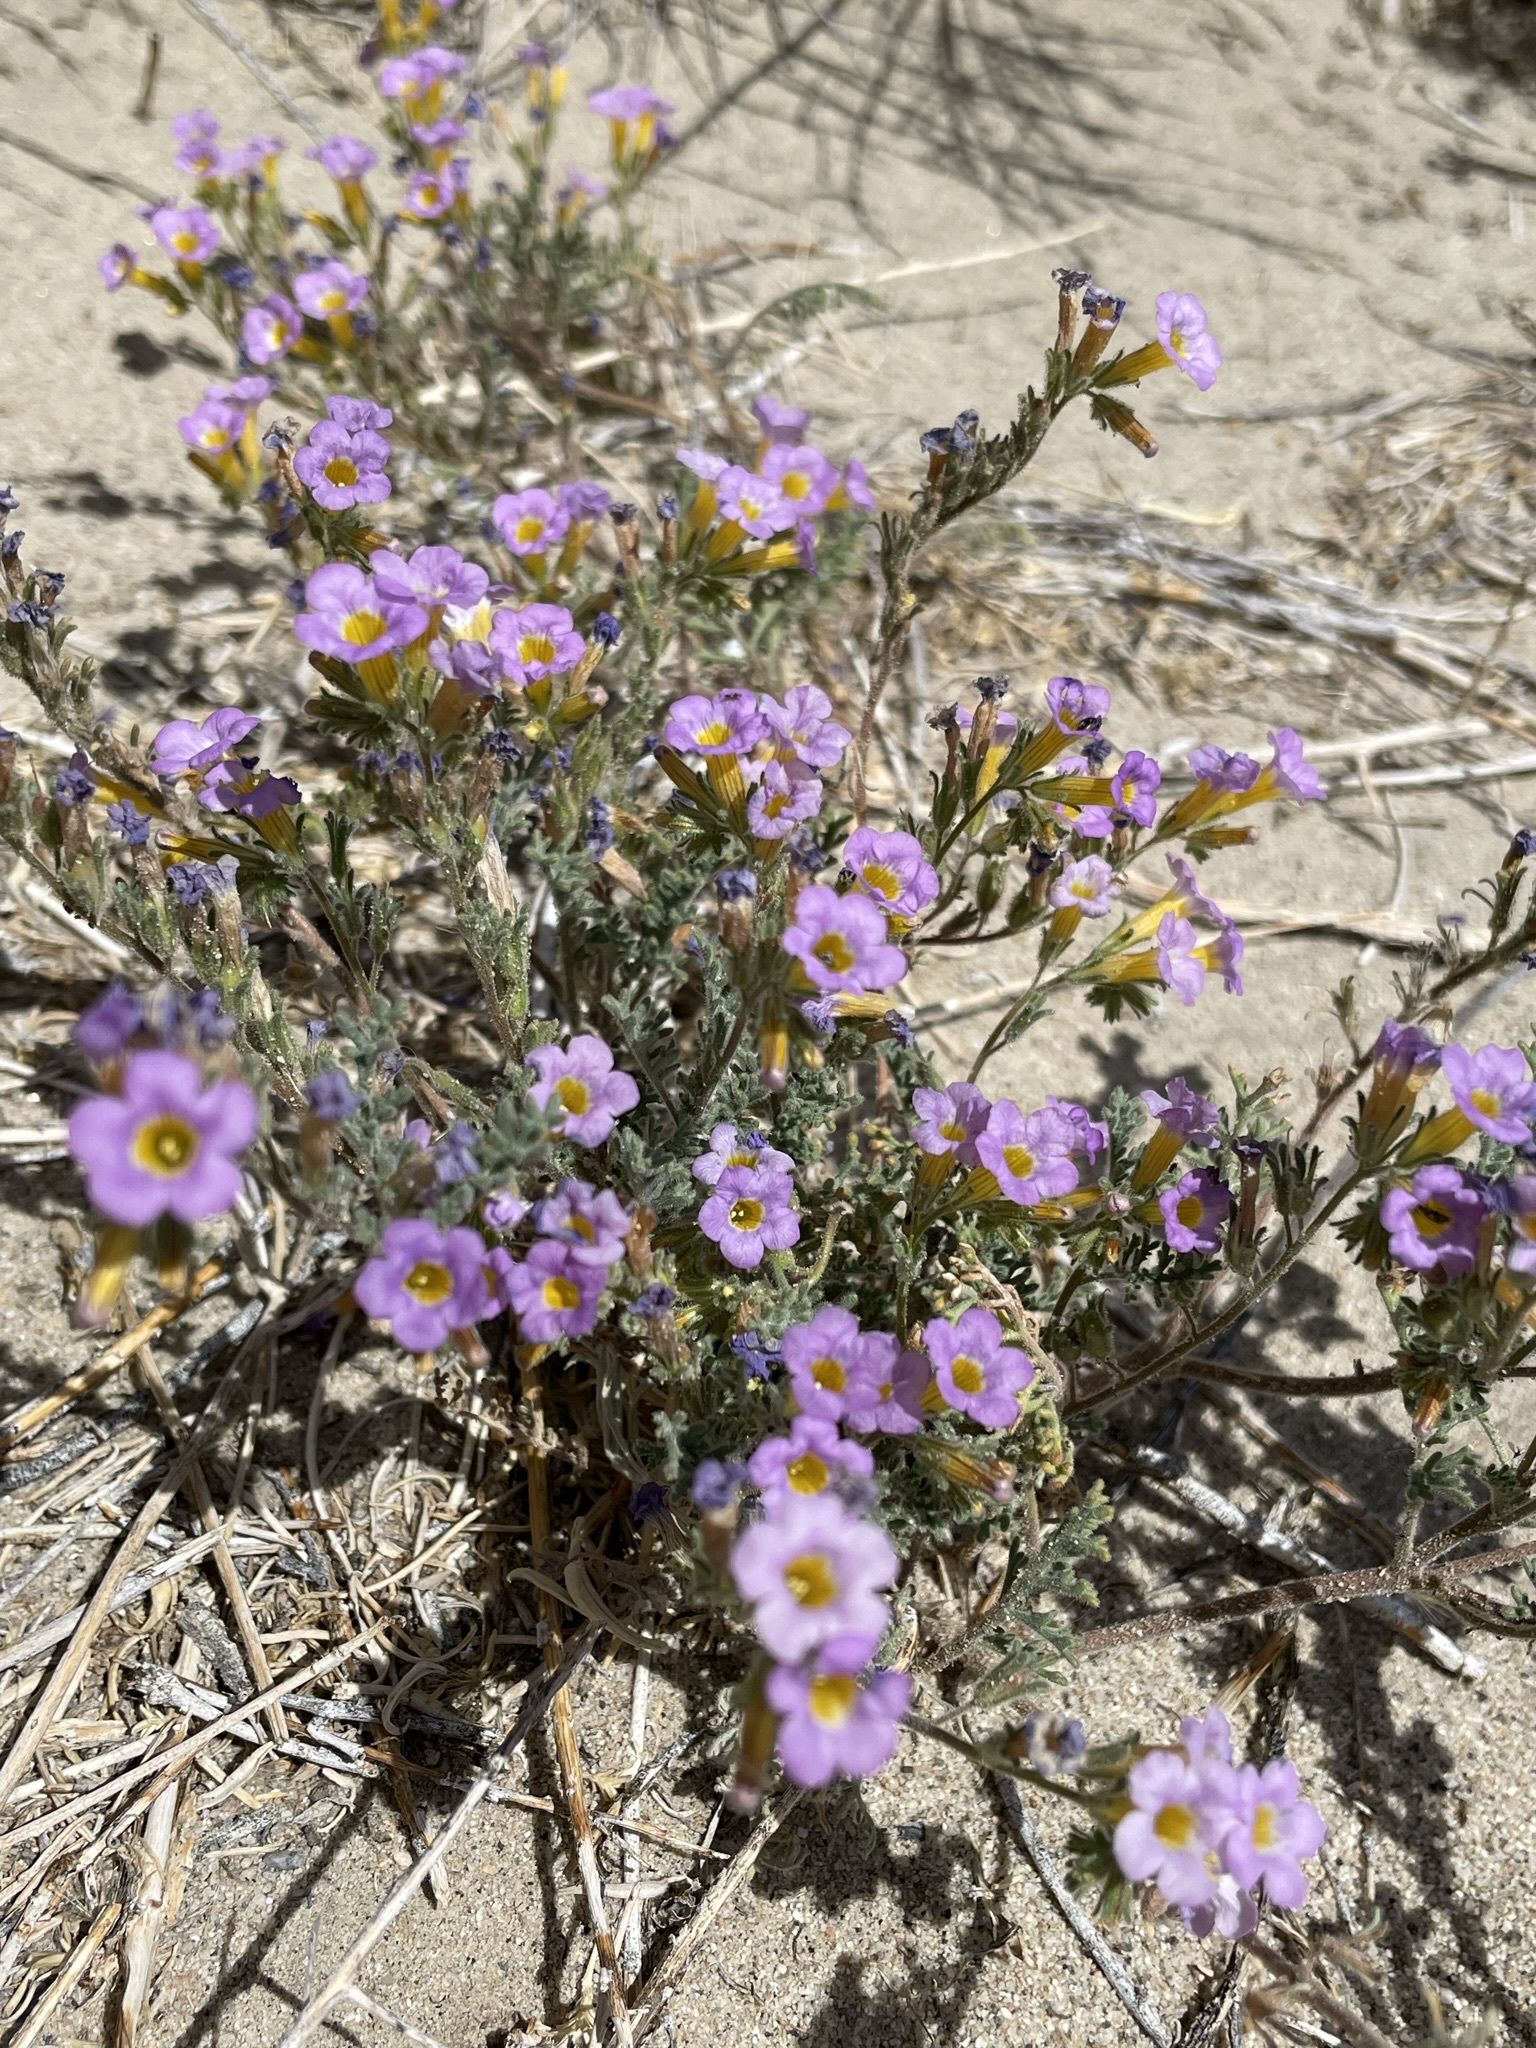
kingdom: Plantae
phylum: Tracheophyta
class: Magnoliopsida
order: Boraginales
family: Hydrophyllaceae
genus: Phacelia
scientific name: Phacelia bicolor
